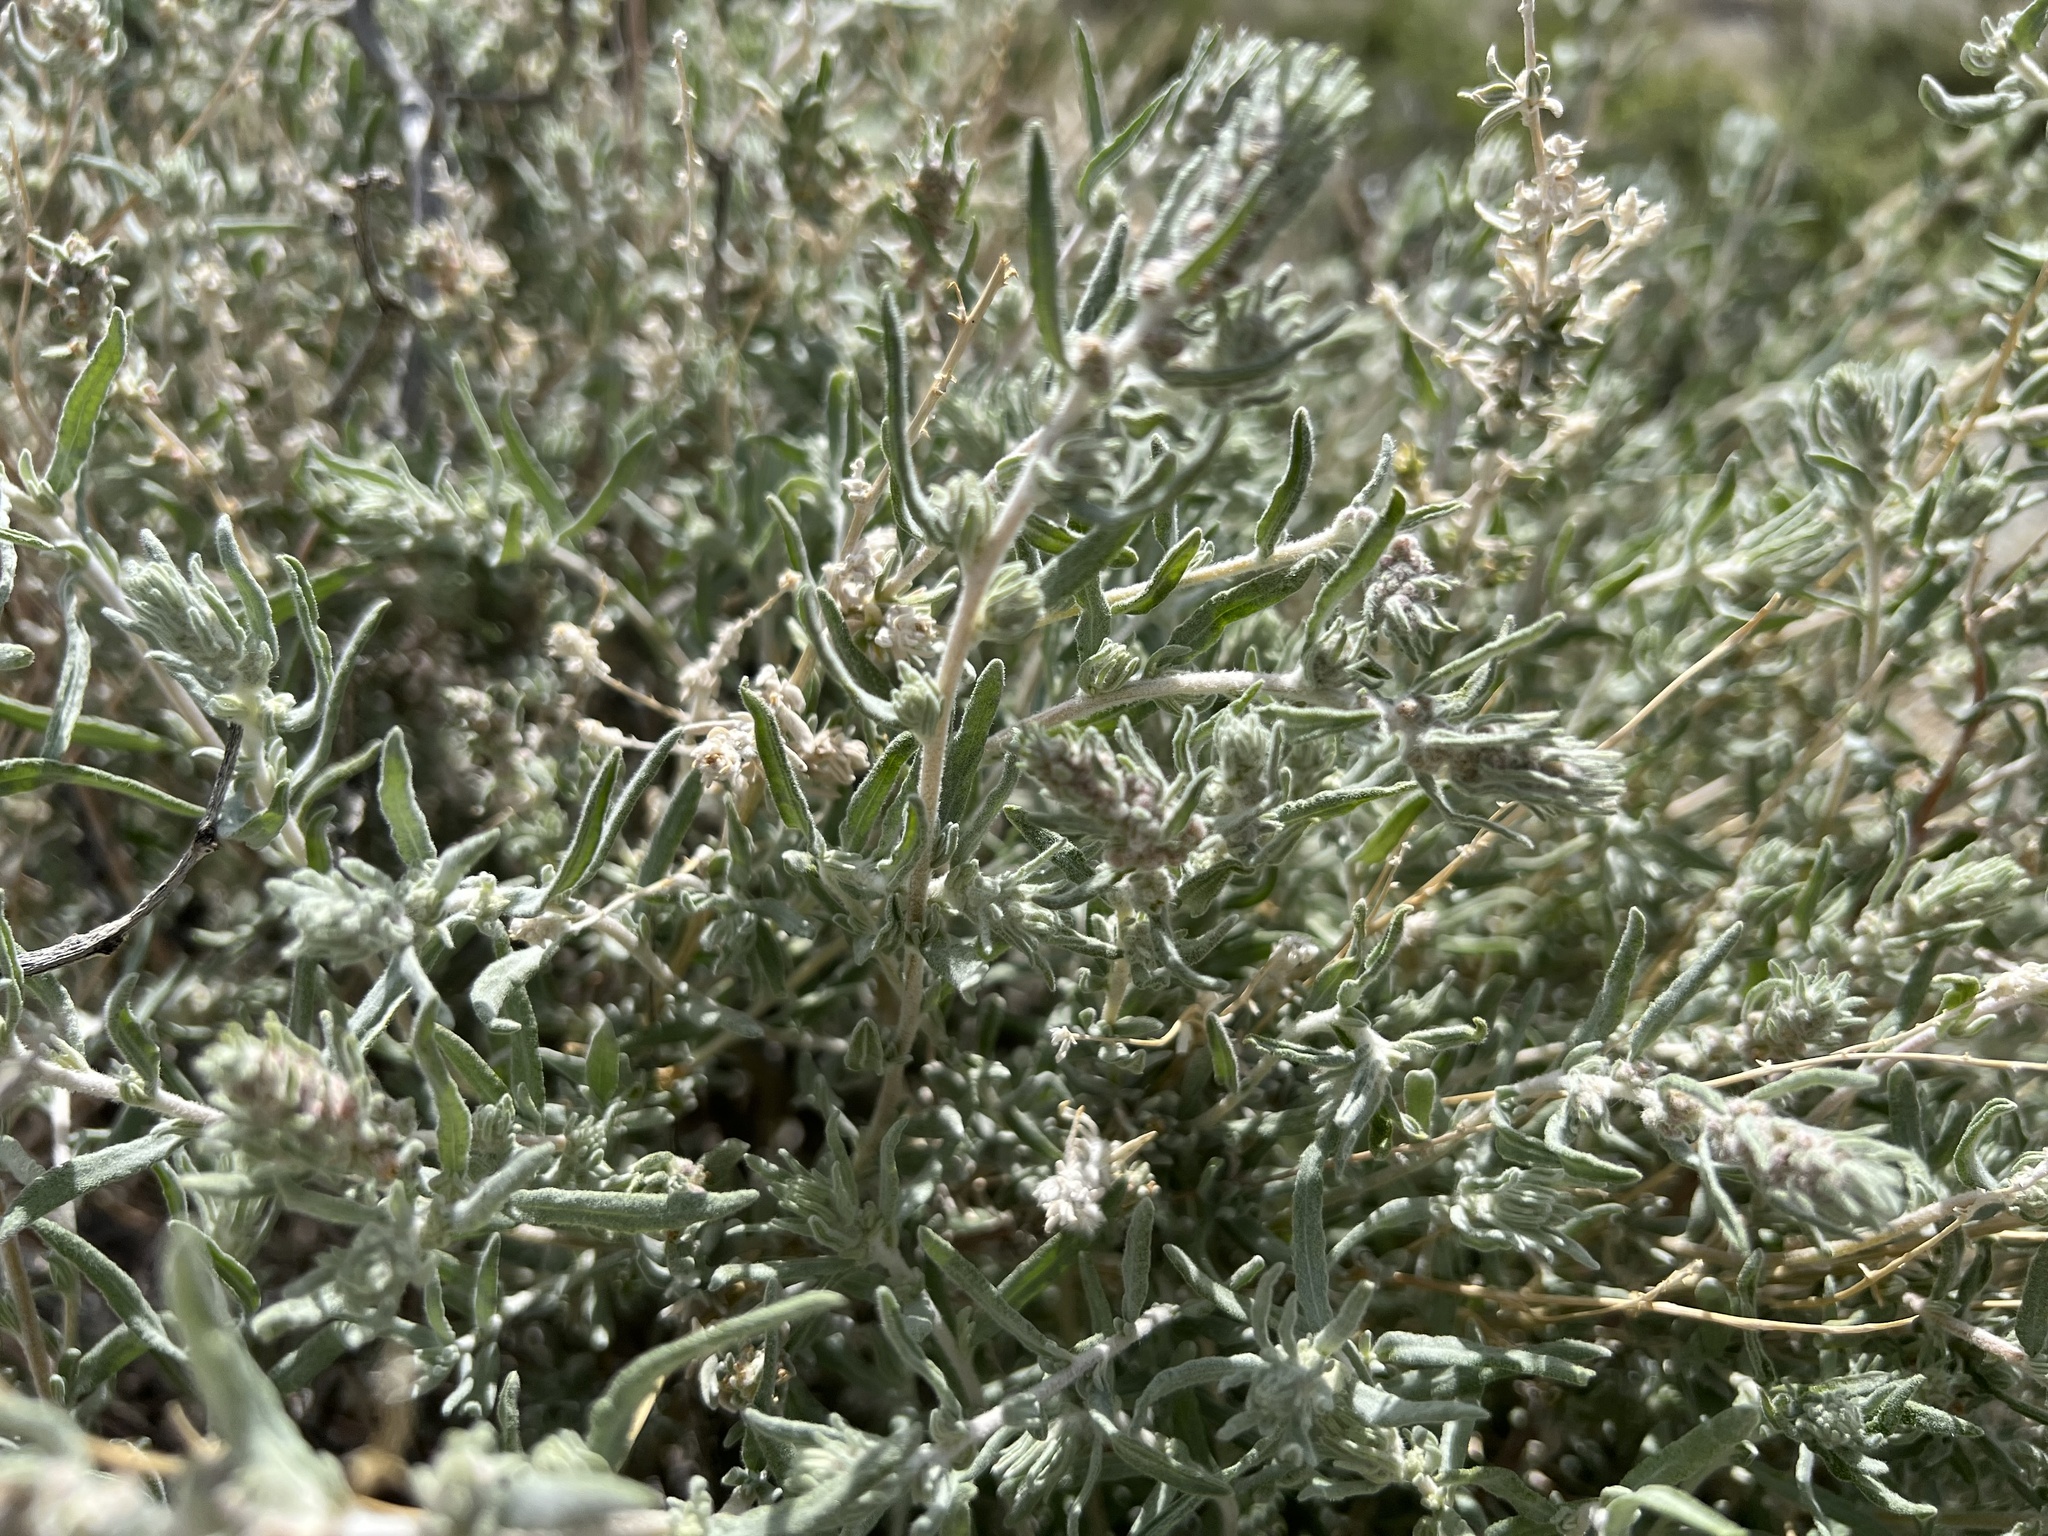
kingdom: Plantae
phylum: Tracheophyta
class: Magnoliopsida
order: Caryophyllales
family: Amaranthaceae
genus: Krascheninnikovia
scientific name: Krascheninnikovia lanata
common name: Winterfat
